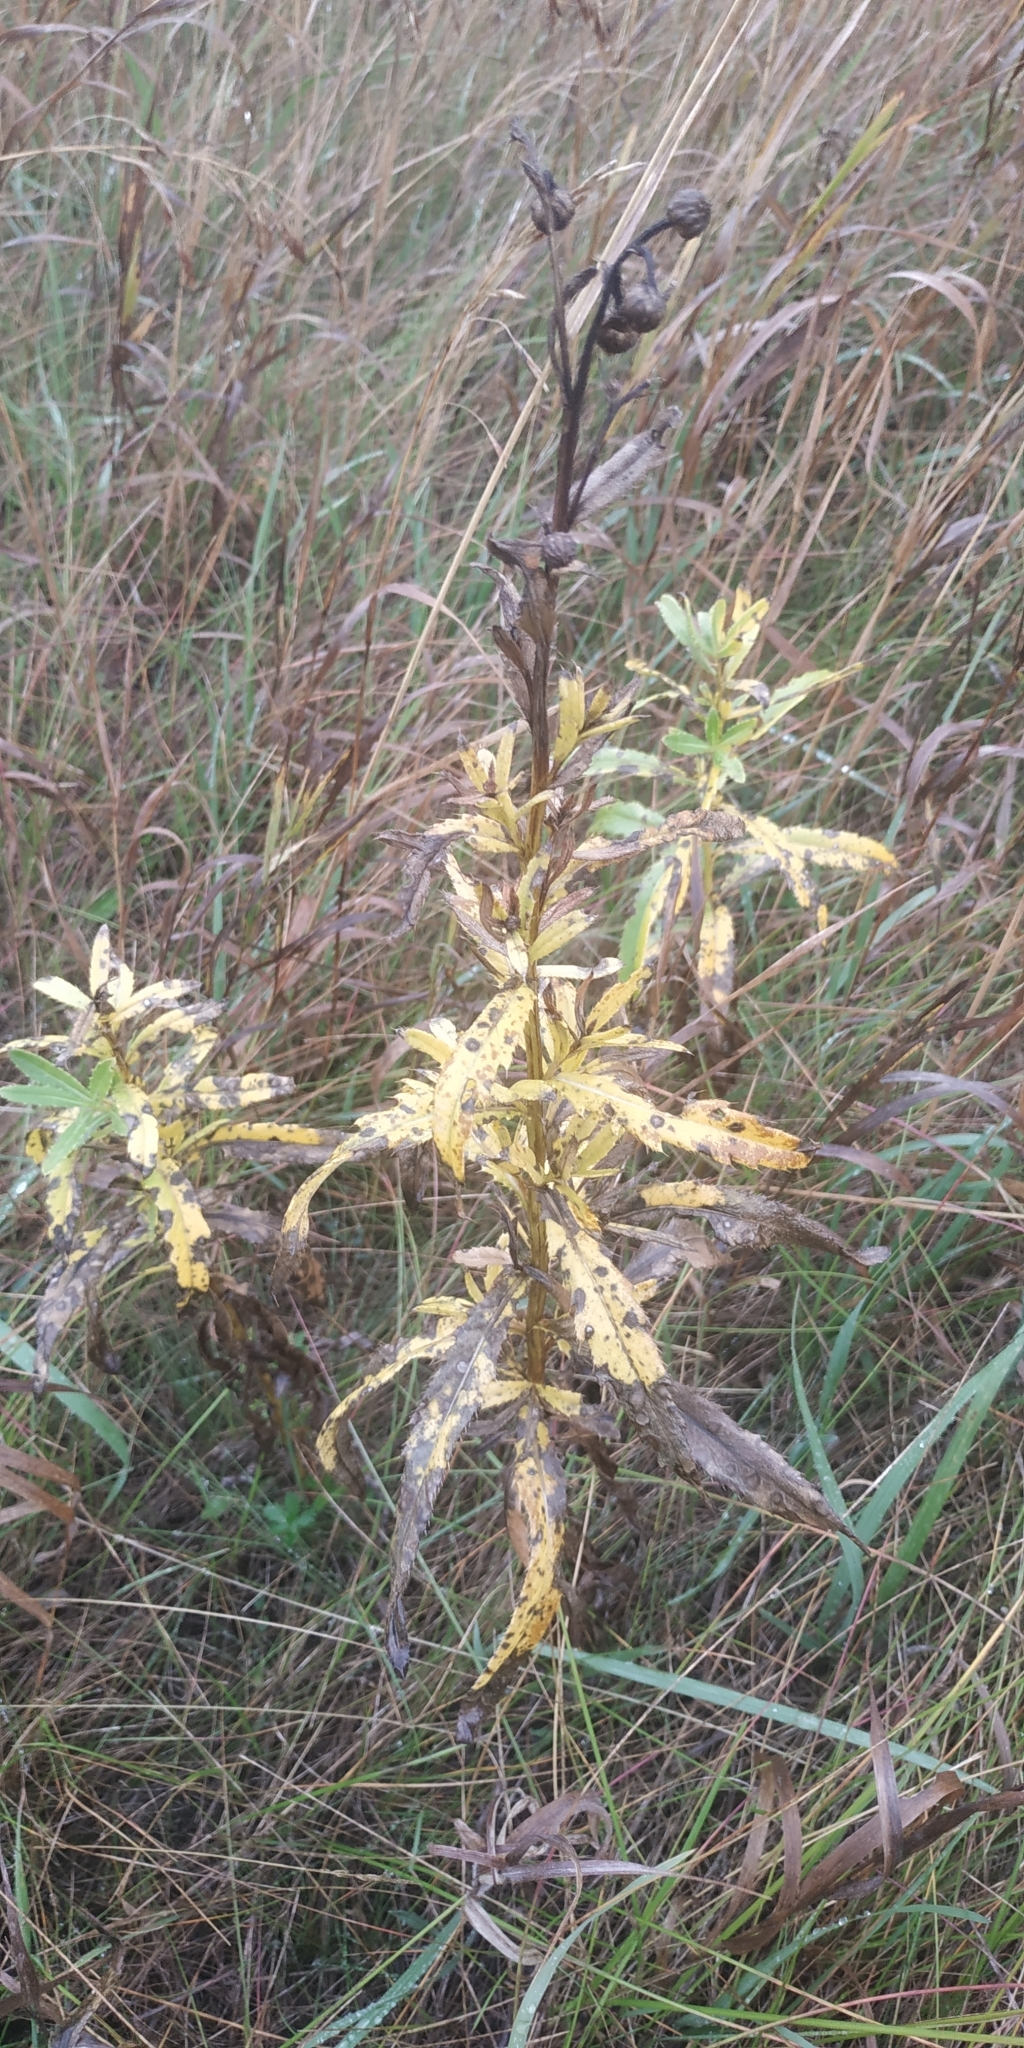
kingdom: Plantae
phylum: Tracheophyta
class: Magnoliopsida
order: Asterales
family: Asteraceae
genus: Cirsium
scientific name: Cirsium arvense
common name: Creeping thistle
